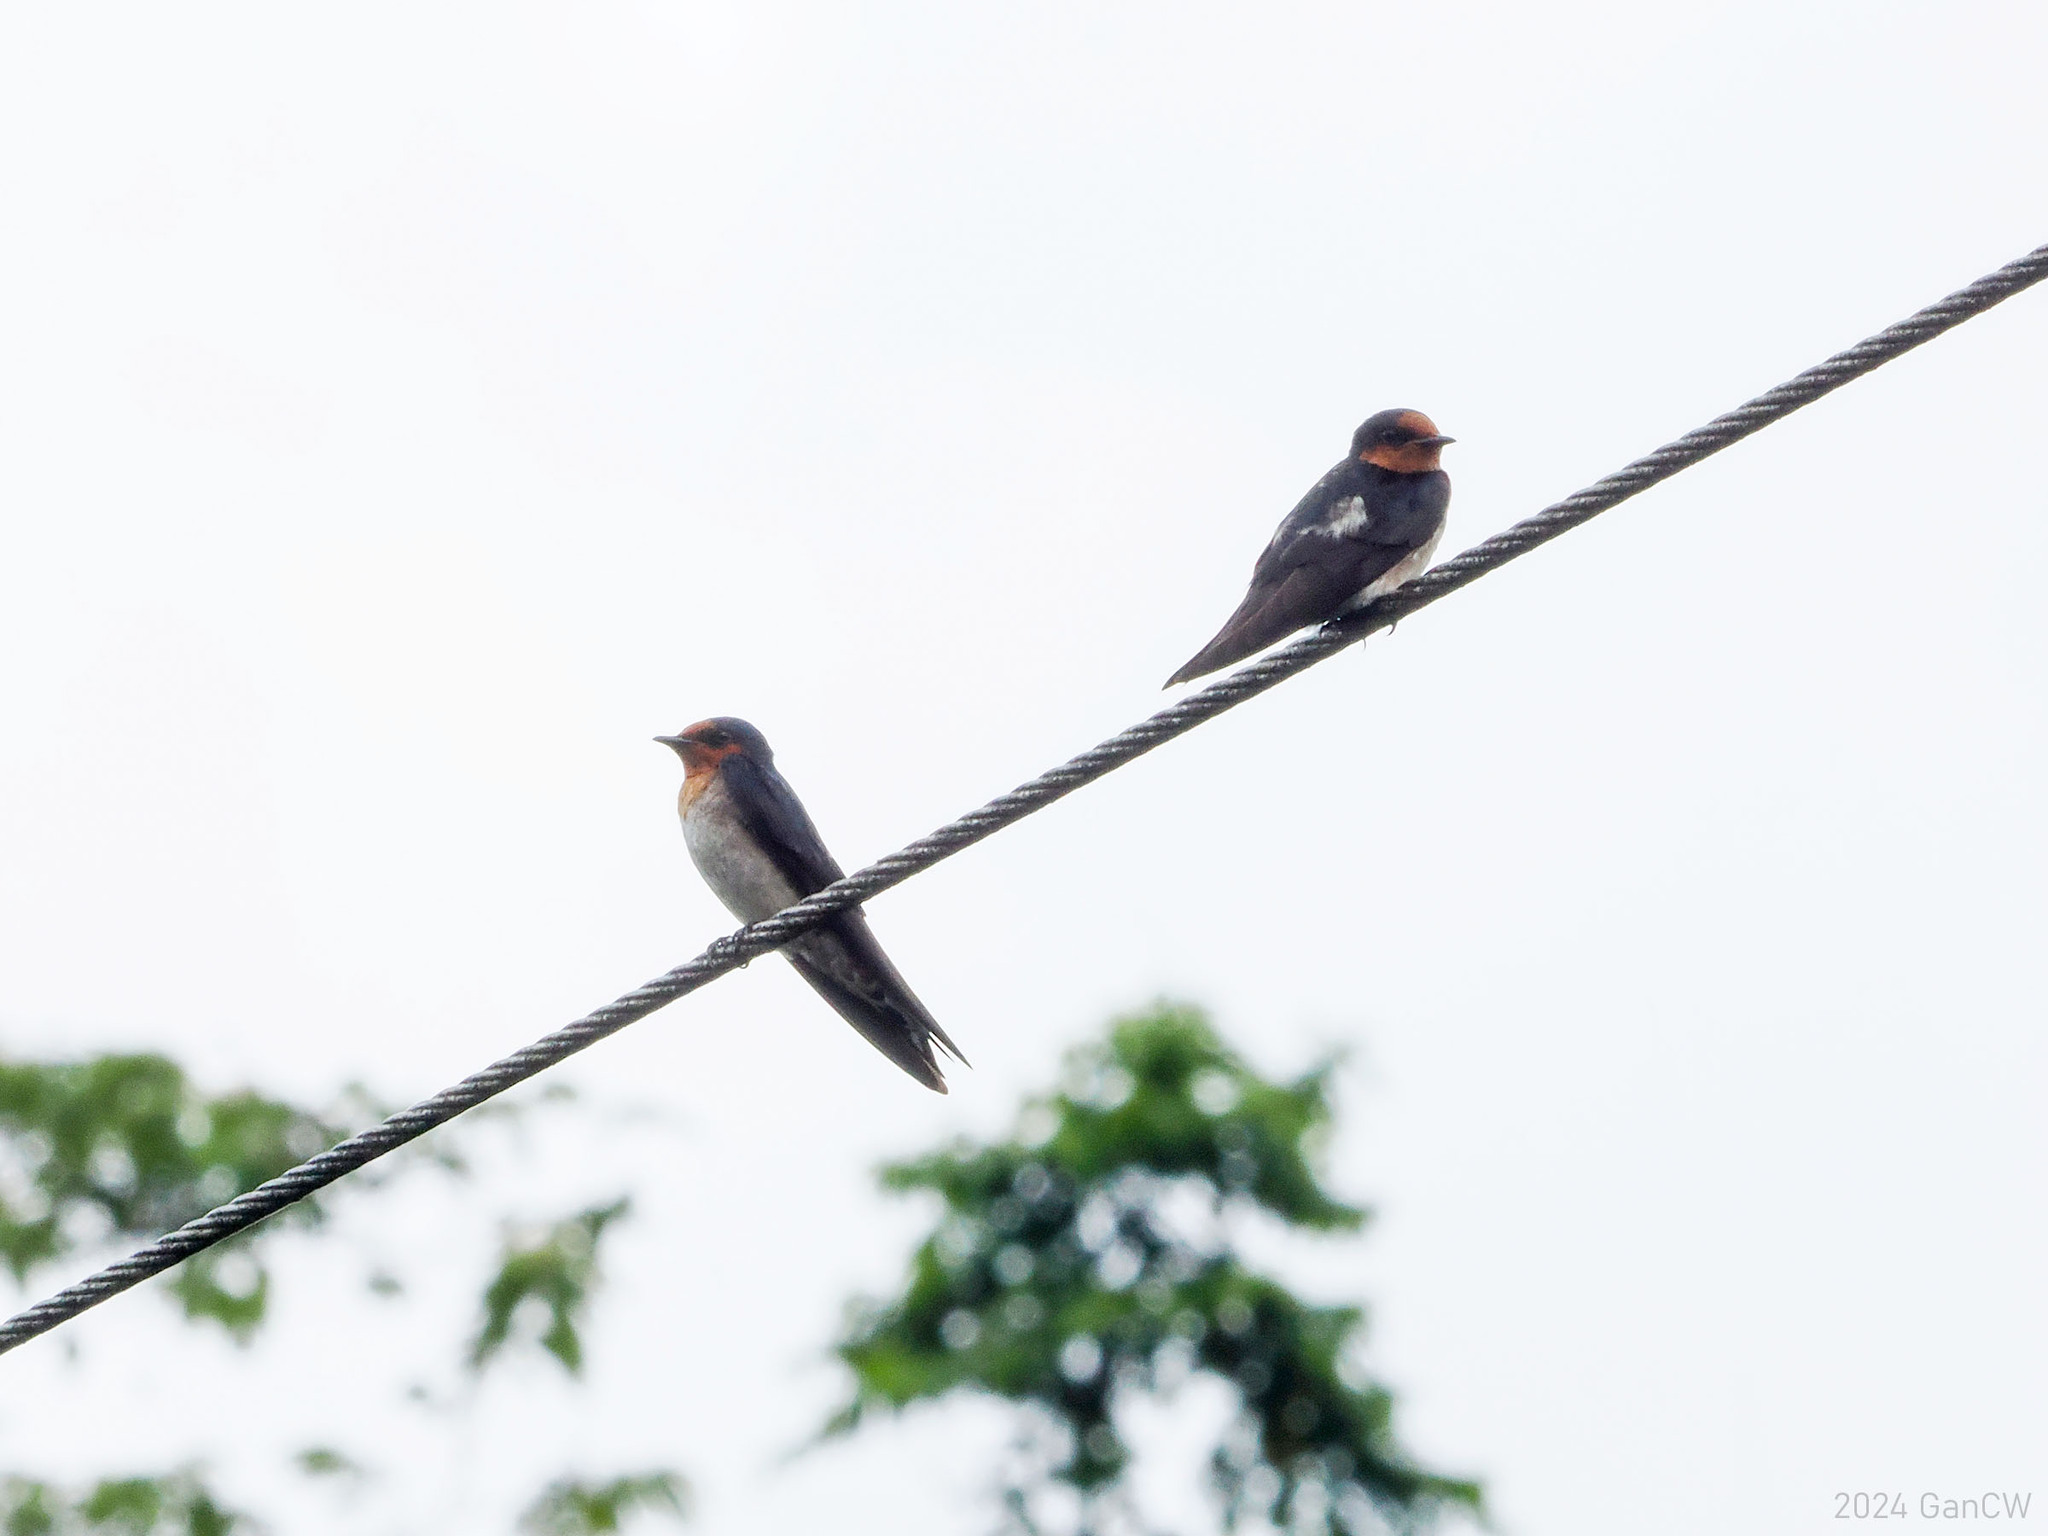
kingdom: Animalia
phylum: Chordata
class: Aves
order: Passeriformes
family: Hirundinidae
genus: Hirundo
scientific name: Hirundo tahitica
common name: Pacific swallow
